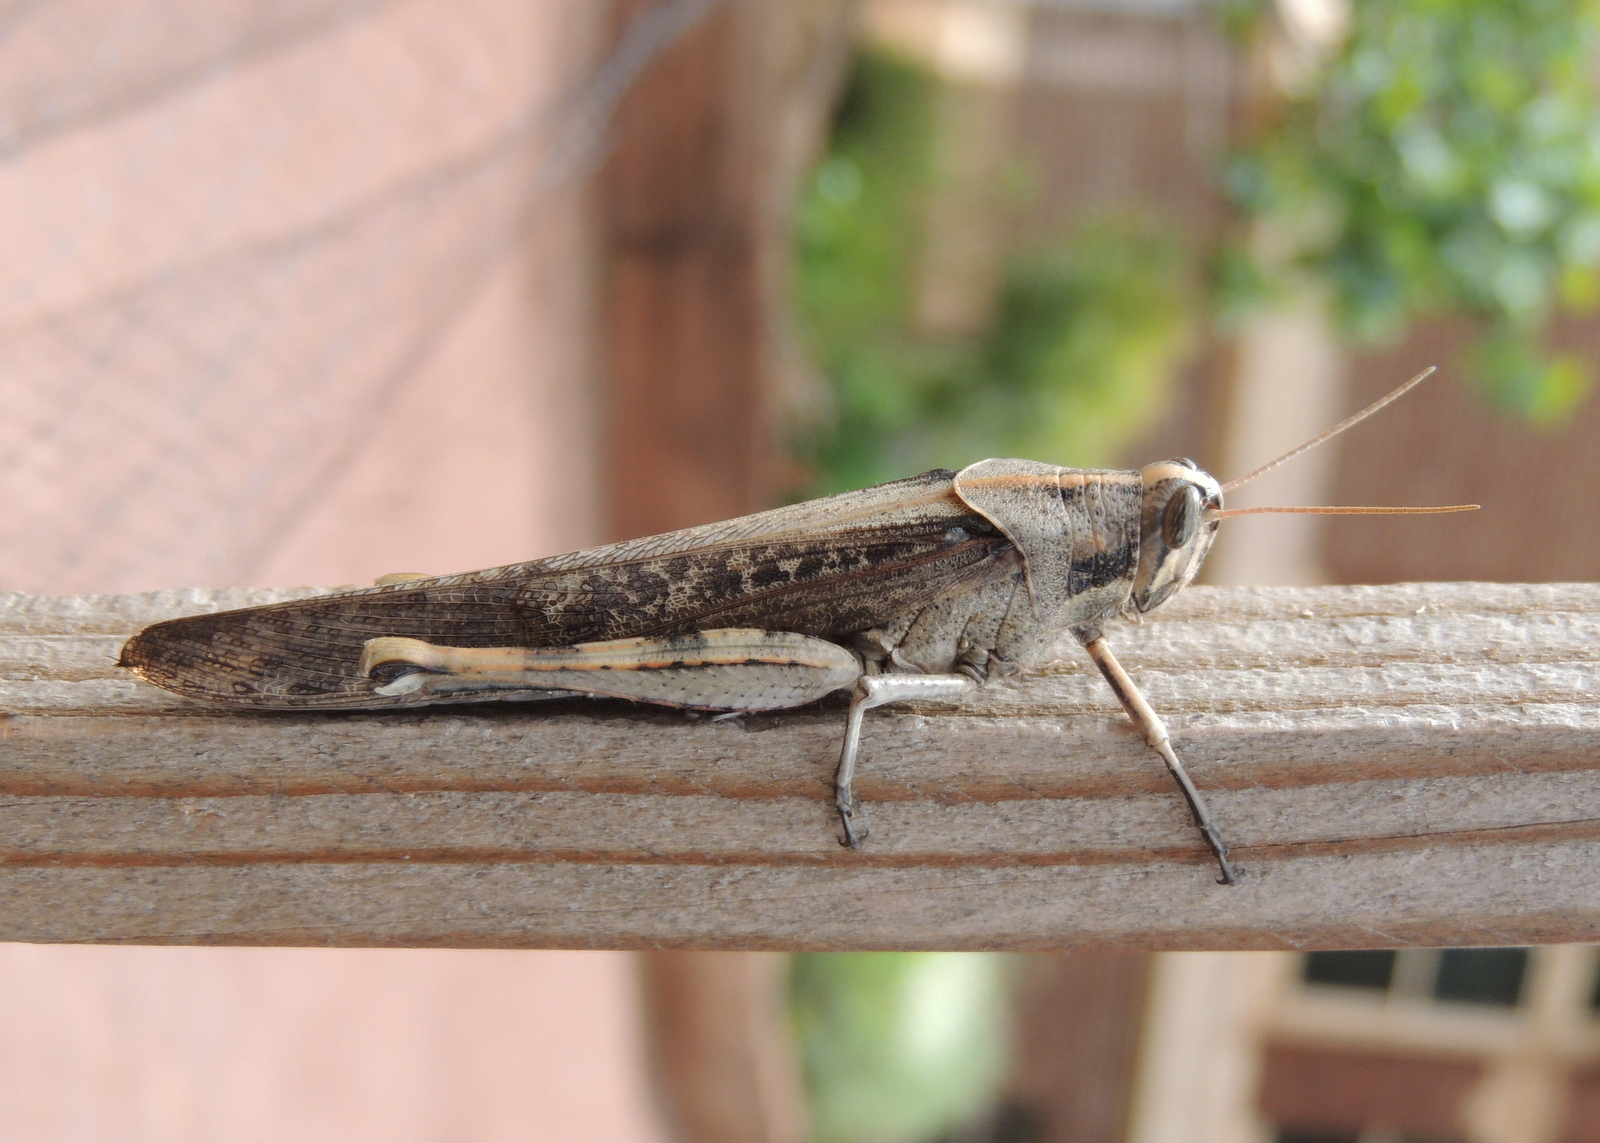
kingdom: Animalia
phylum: Arthropoda
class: Insecta
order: Orthoptera
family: Acrididae
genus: Schistocerca
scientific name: Schistocerca nitens
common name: Vagrant grasshopper
